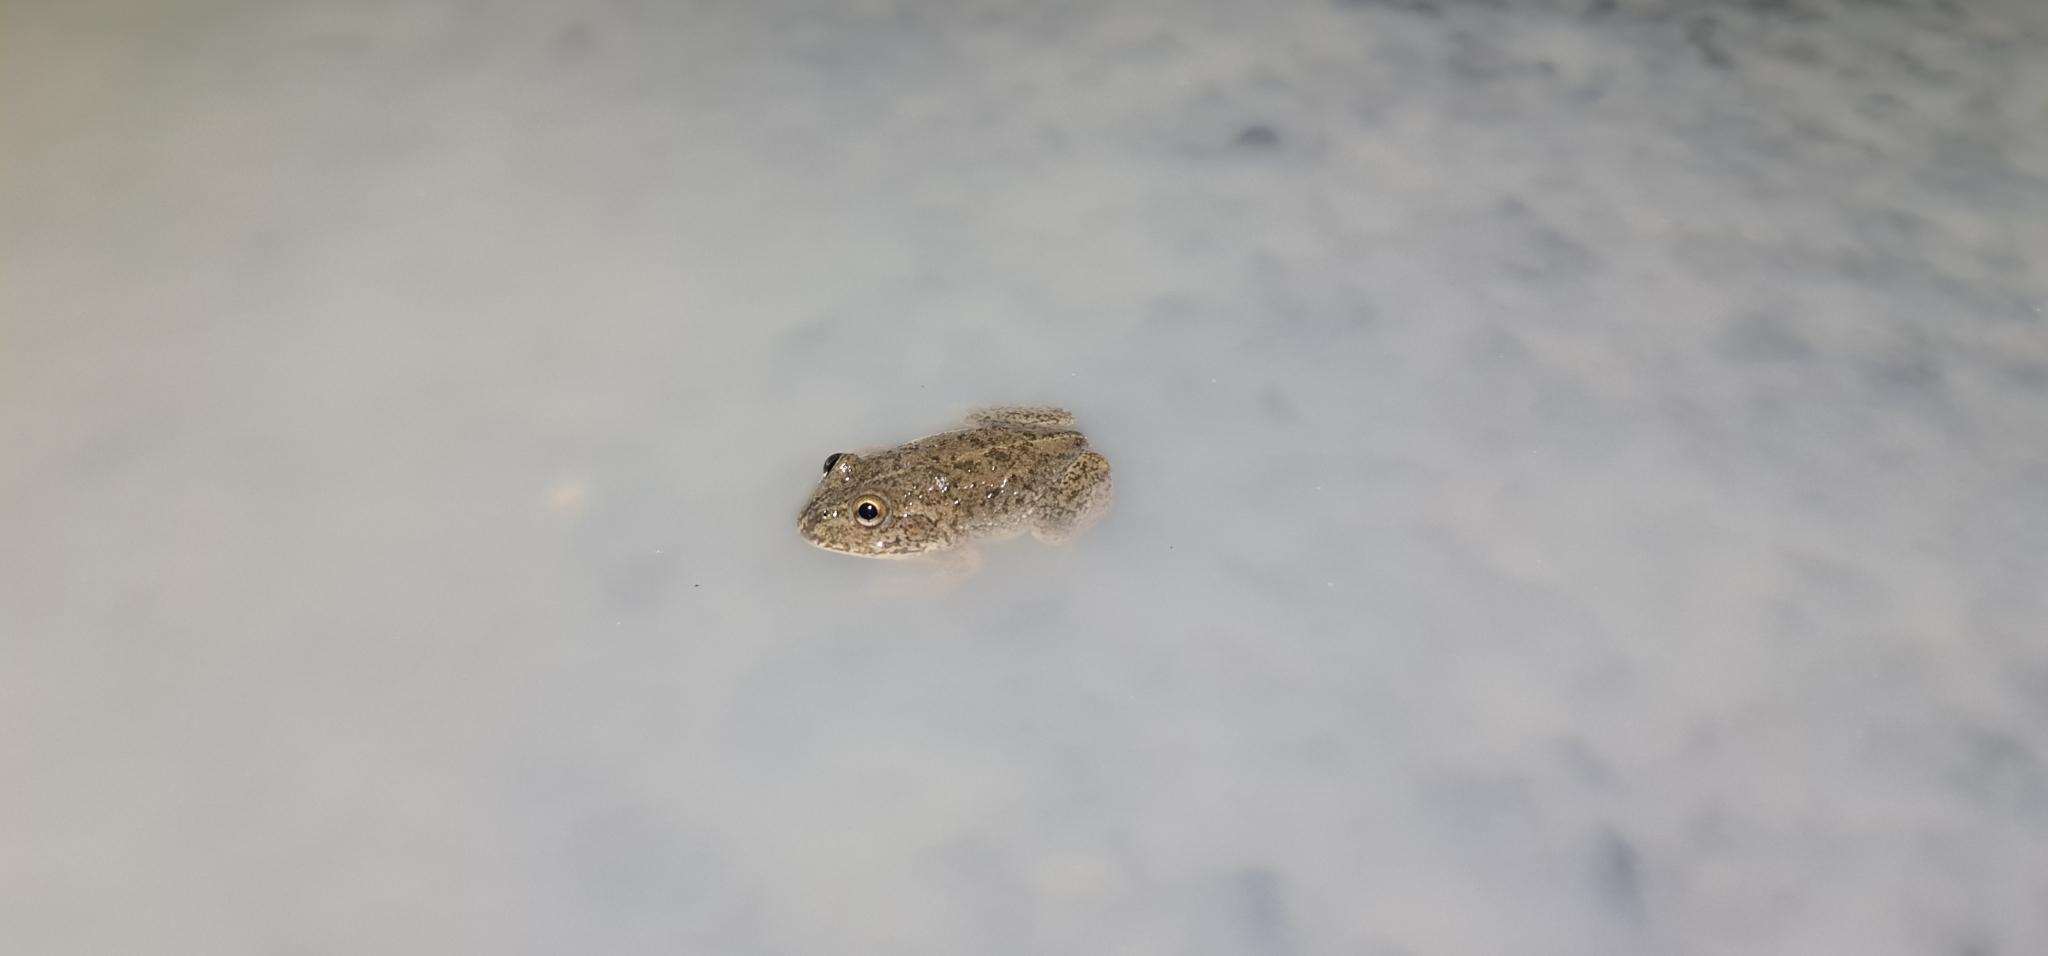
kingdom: Animalia
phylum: Chordata
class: Amphibia
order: Anura
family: Pelodryadidae
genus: Ranoidea
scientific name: Ranoidea platycephala
